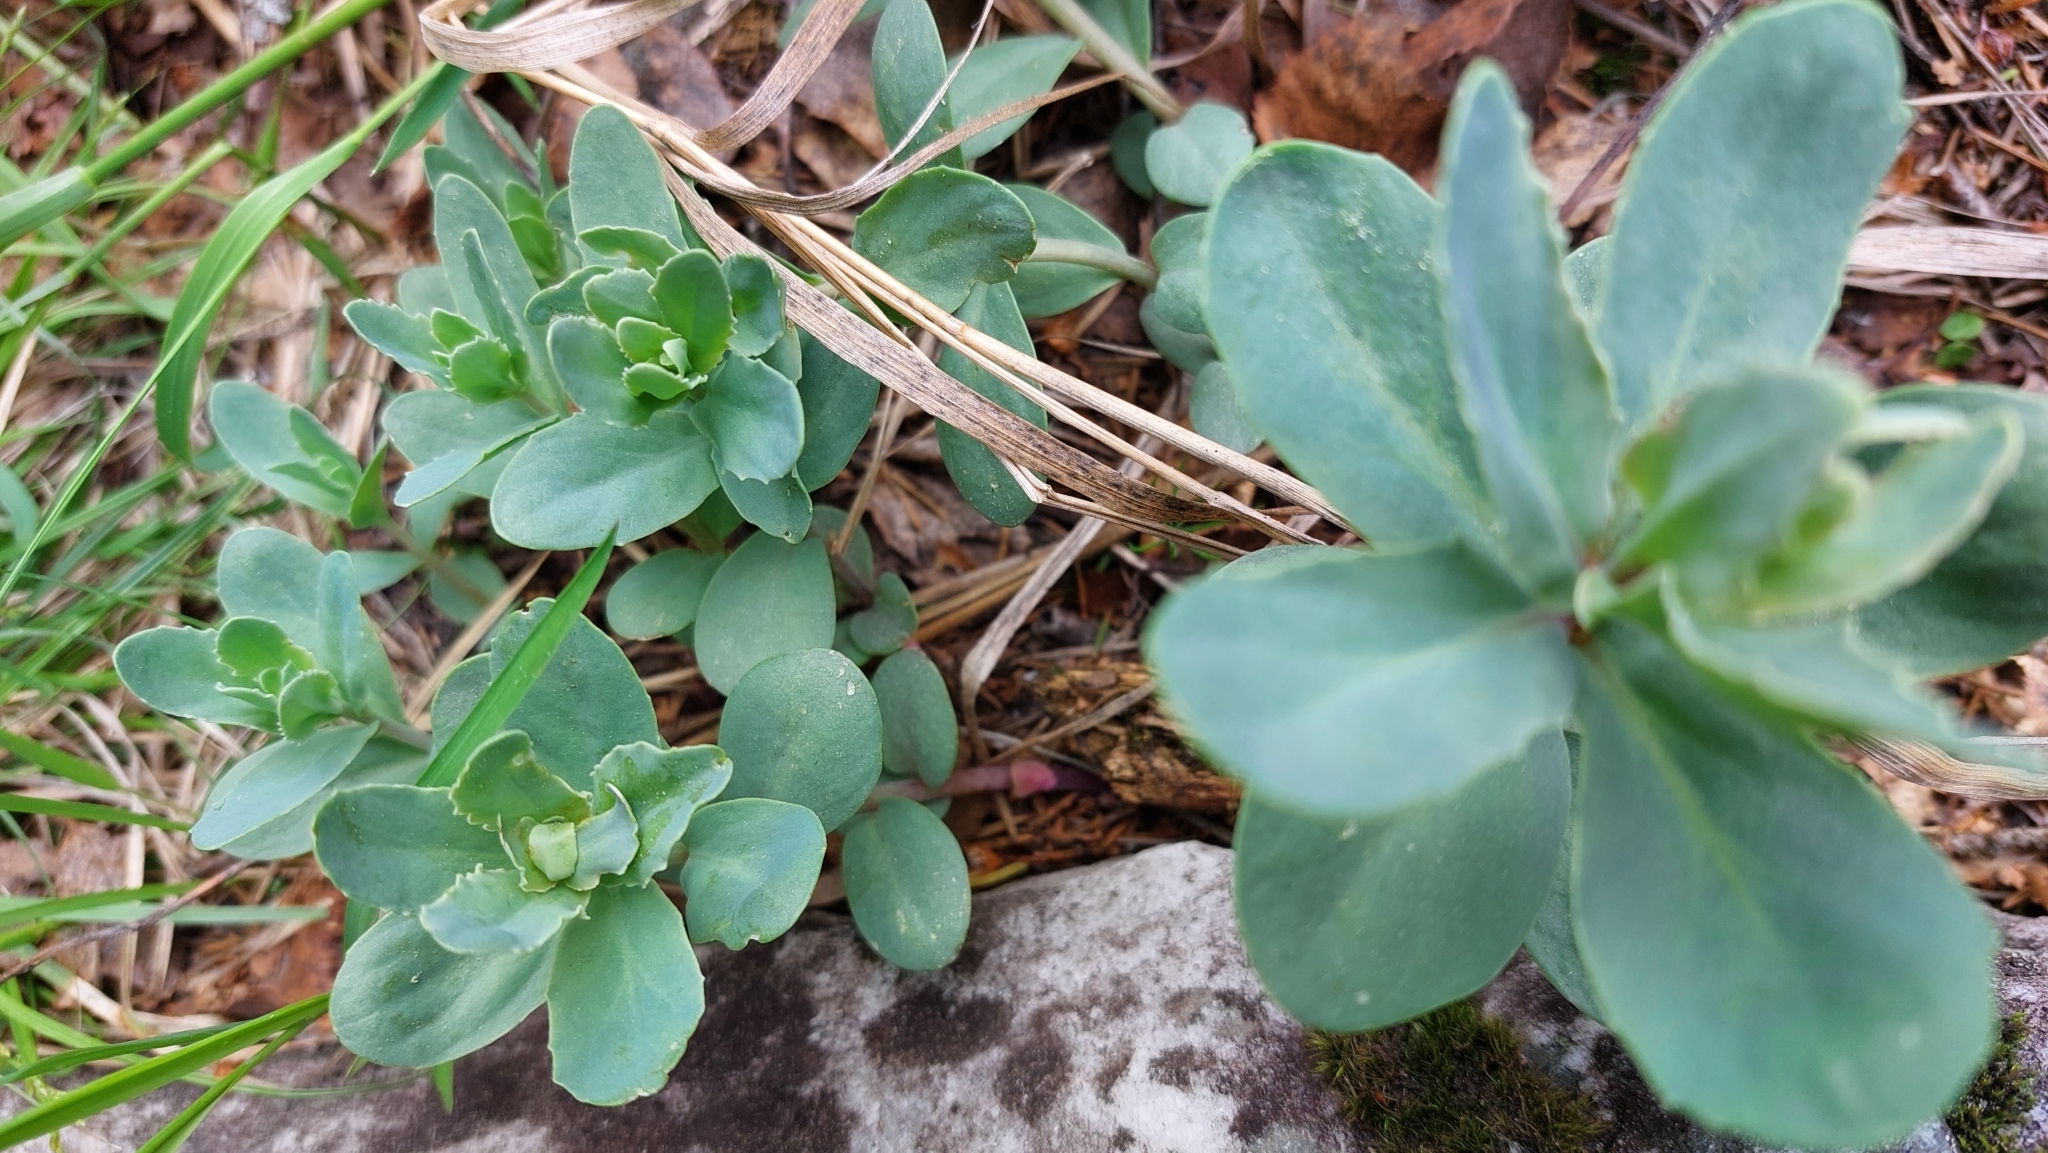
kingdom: Plantae
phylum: Tracheophyta
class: Magnoliopsida
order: Saxifragales
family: Crassulaceae
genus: Hylotelephium
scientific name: Hylotelephium telephium
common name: Live-forever
